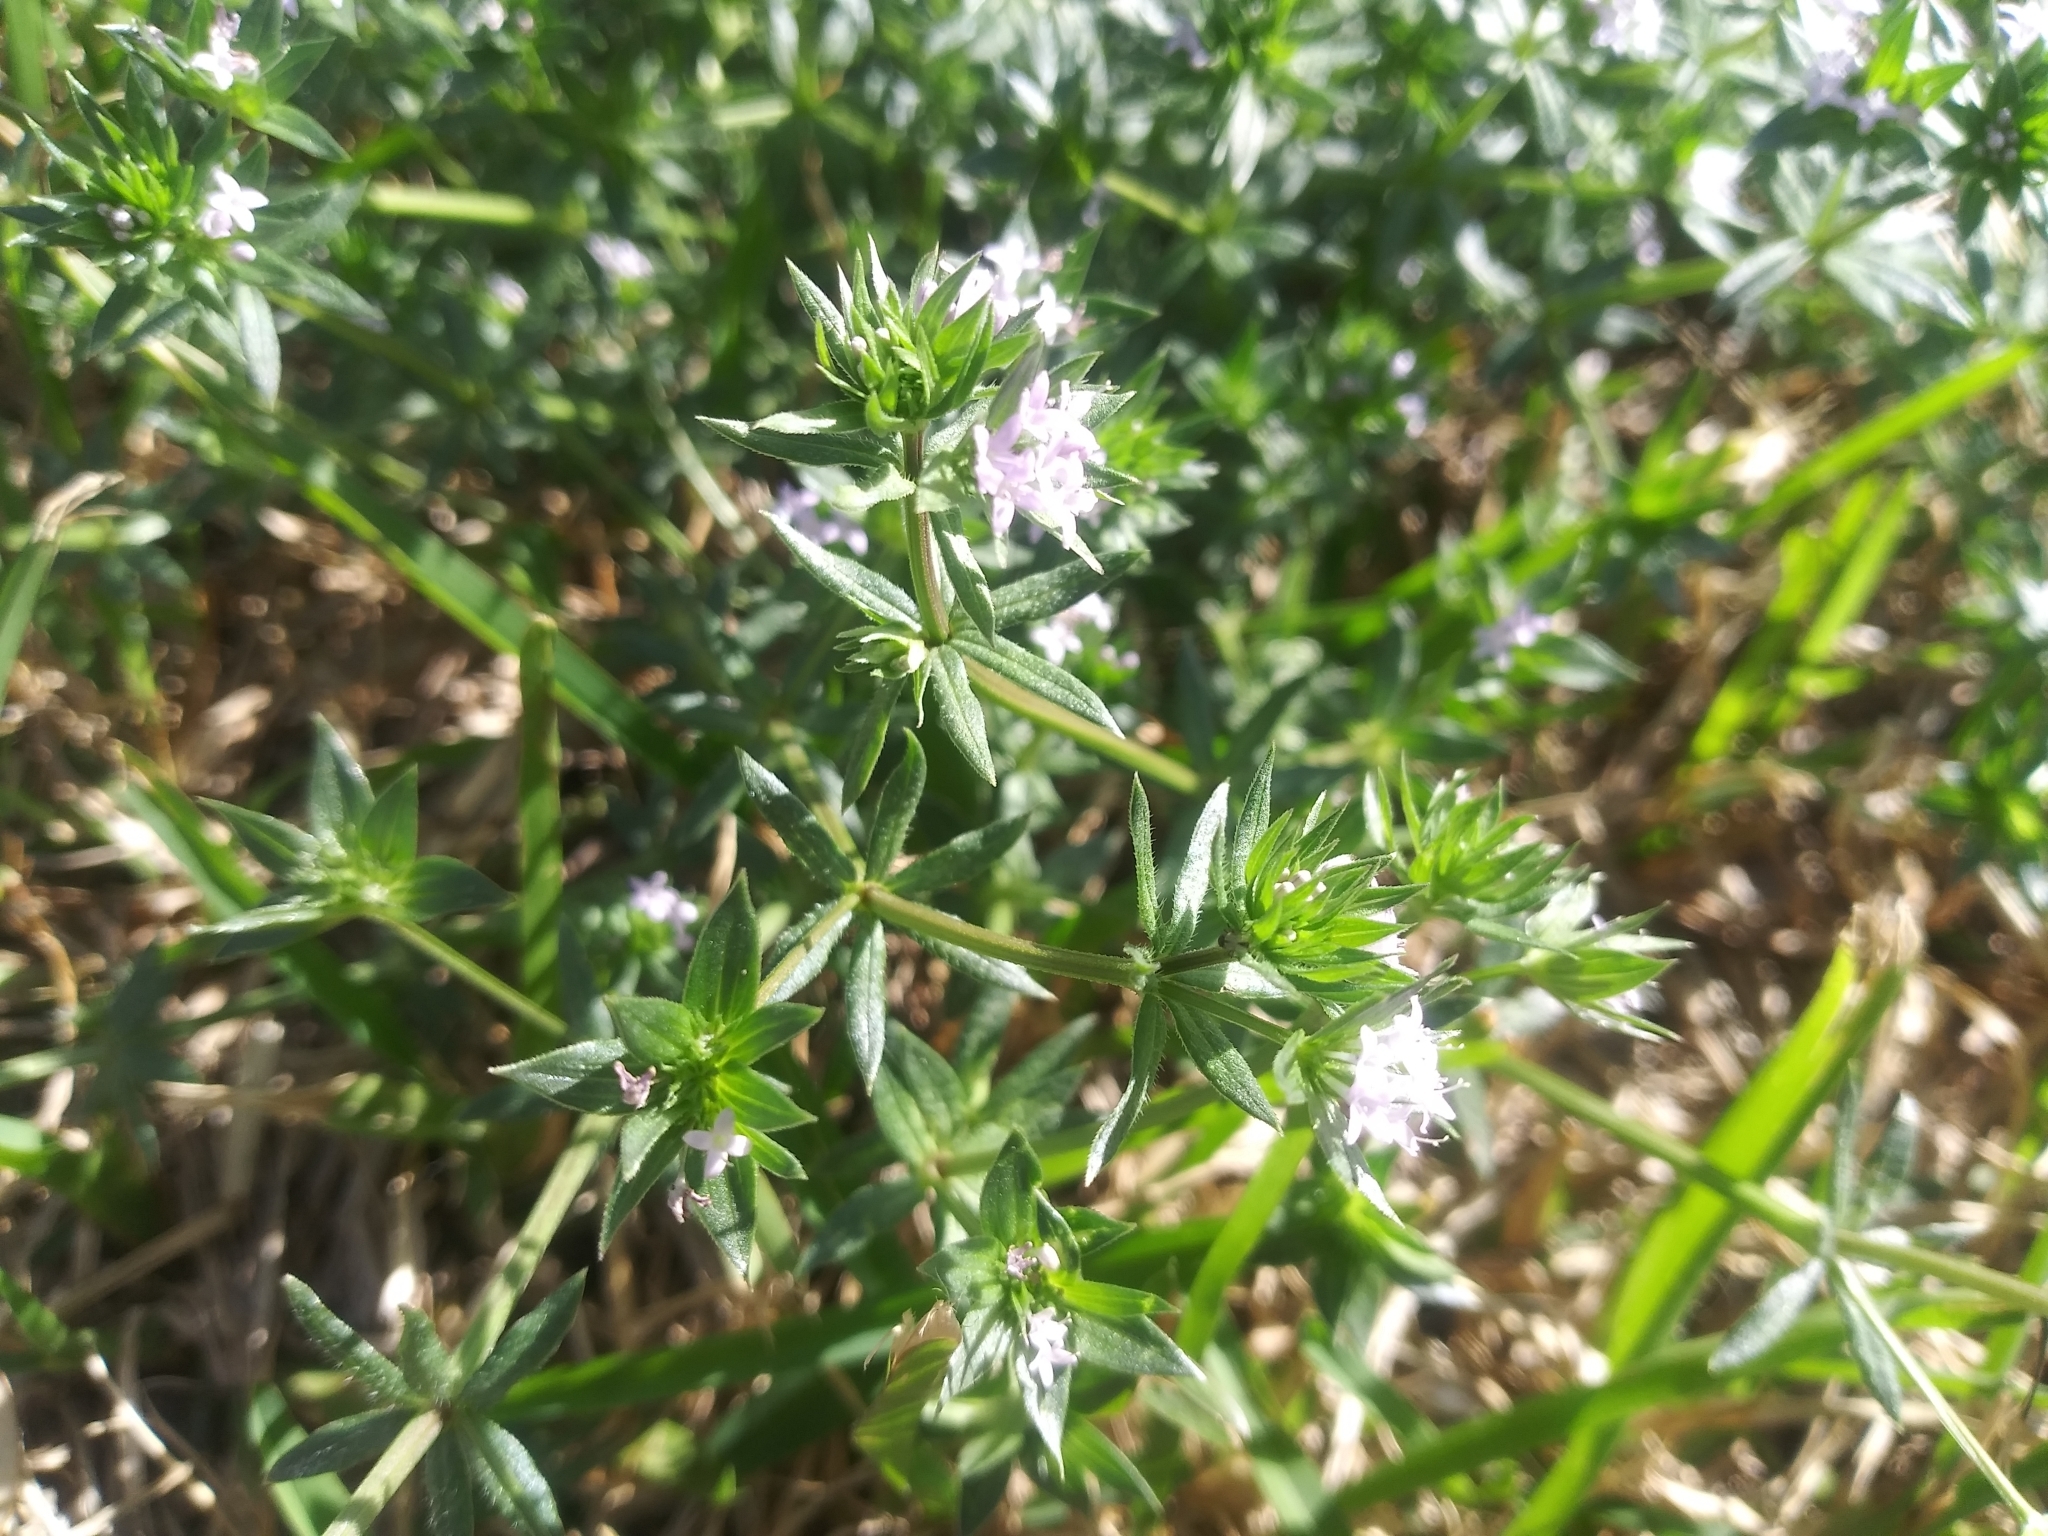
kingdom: Plantae
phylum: Tracheophyta
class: Magnoliopsida
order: Gentianales
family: Rubiaceae
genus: Sherardia
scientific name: Sherardia arvensis
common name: Field madder
